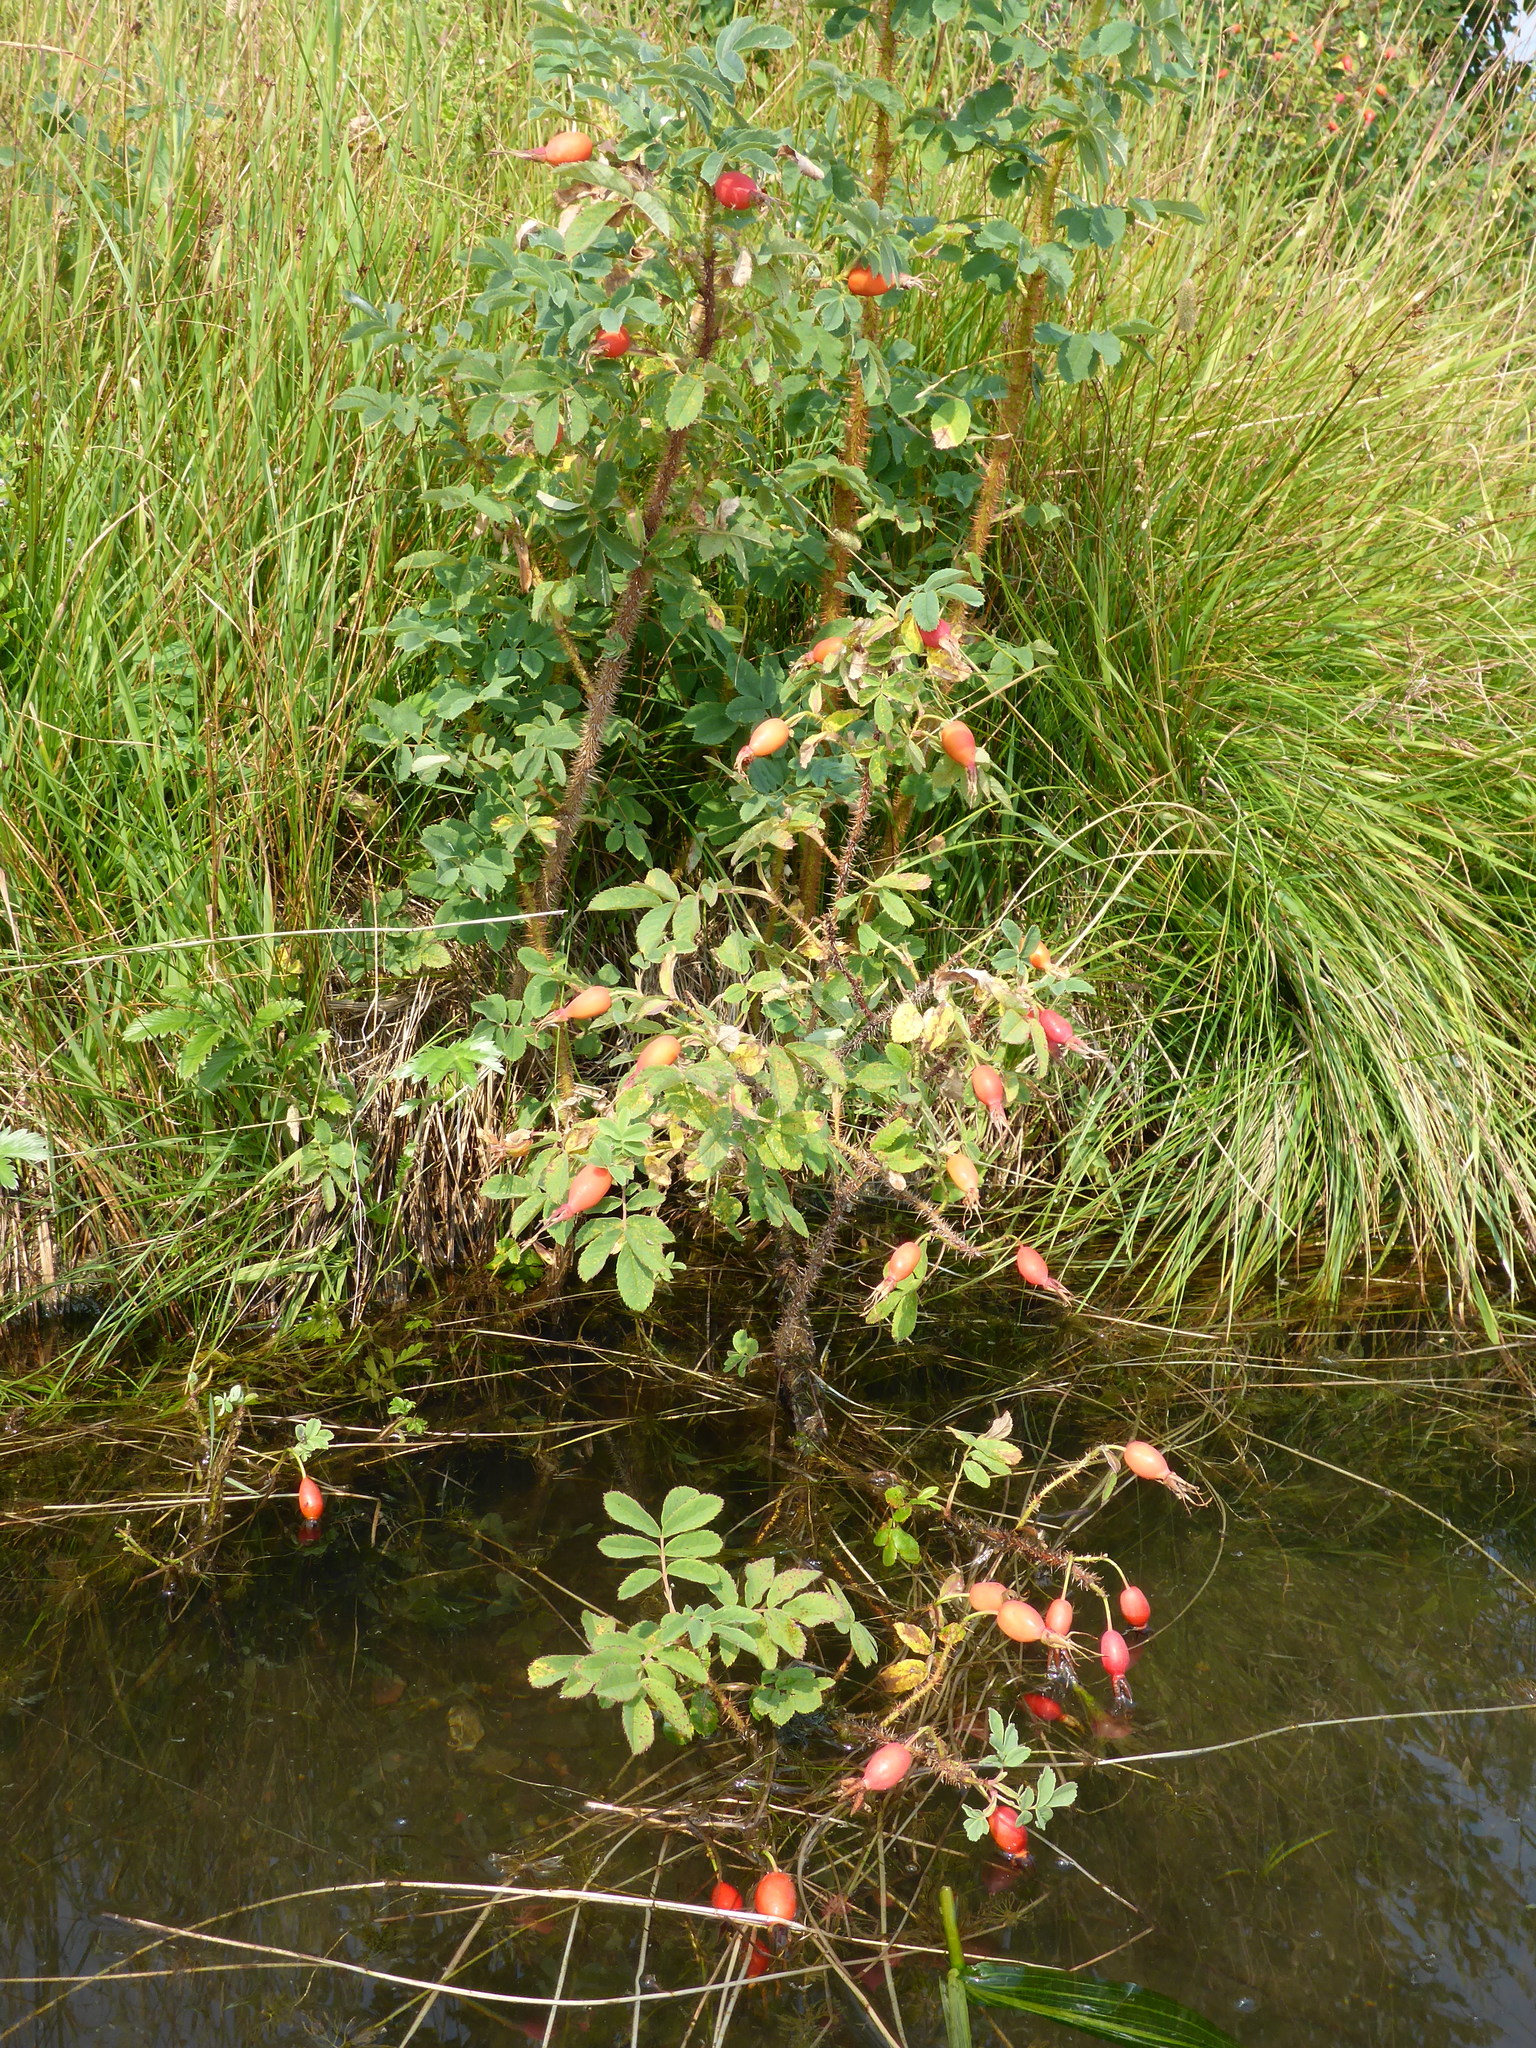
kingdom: Plantae
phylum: Tracheophyta
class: Magnoliopsida
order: Rosales
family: Rosaceae
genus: Rosa
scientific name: Rosa acicularis
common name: Prickly rose
